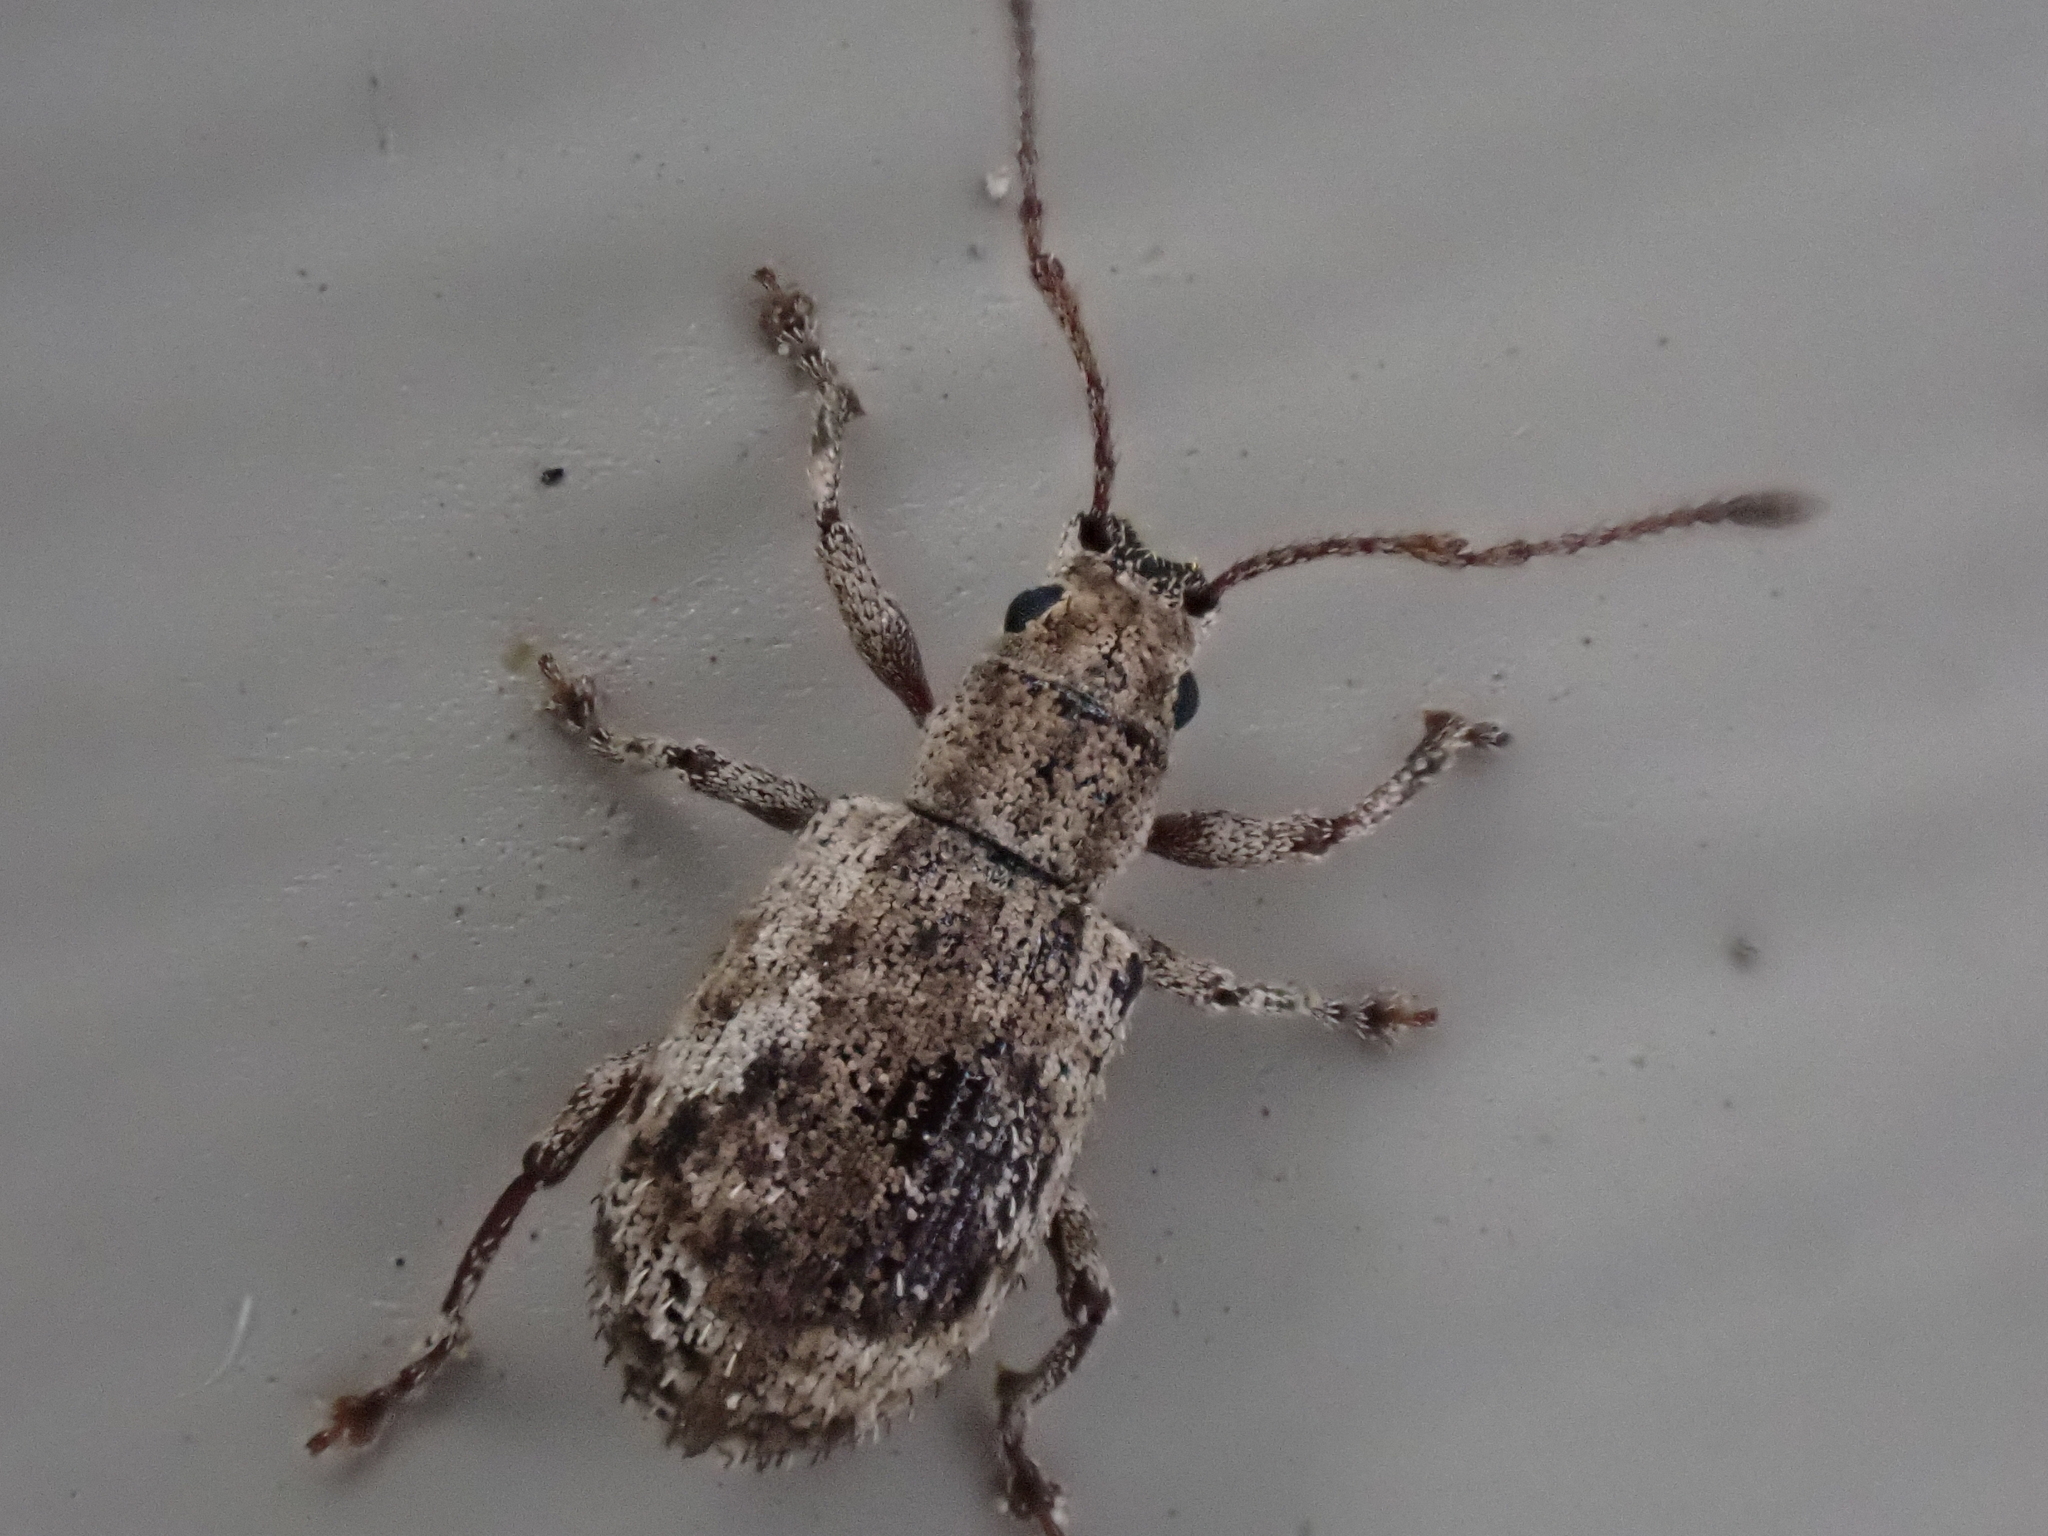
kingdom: Animalia
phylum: Arthropoda
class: Insecta
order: Coleoptera
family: Curculionidae
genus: Pseudoedophrys
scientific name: Pseudoedophrys hilleri
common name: Weevil
